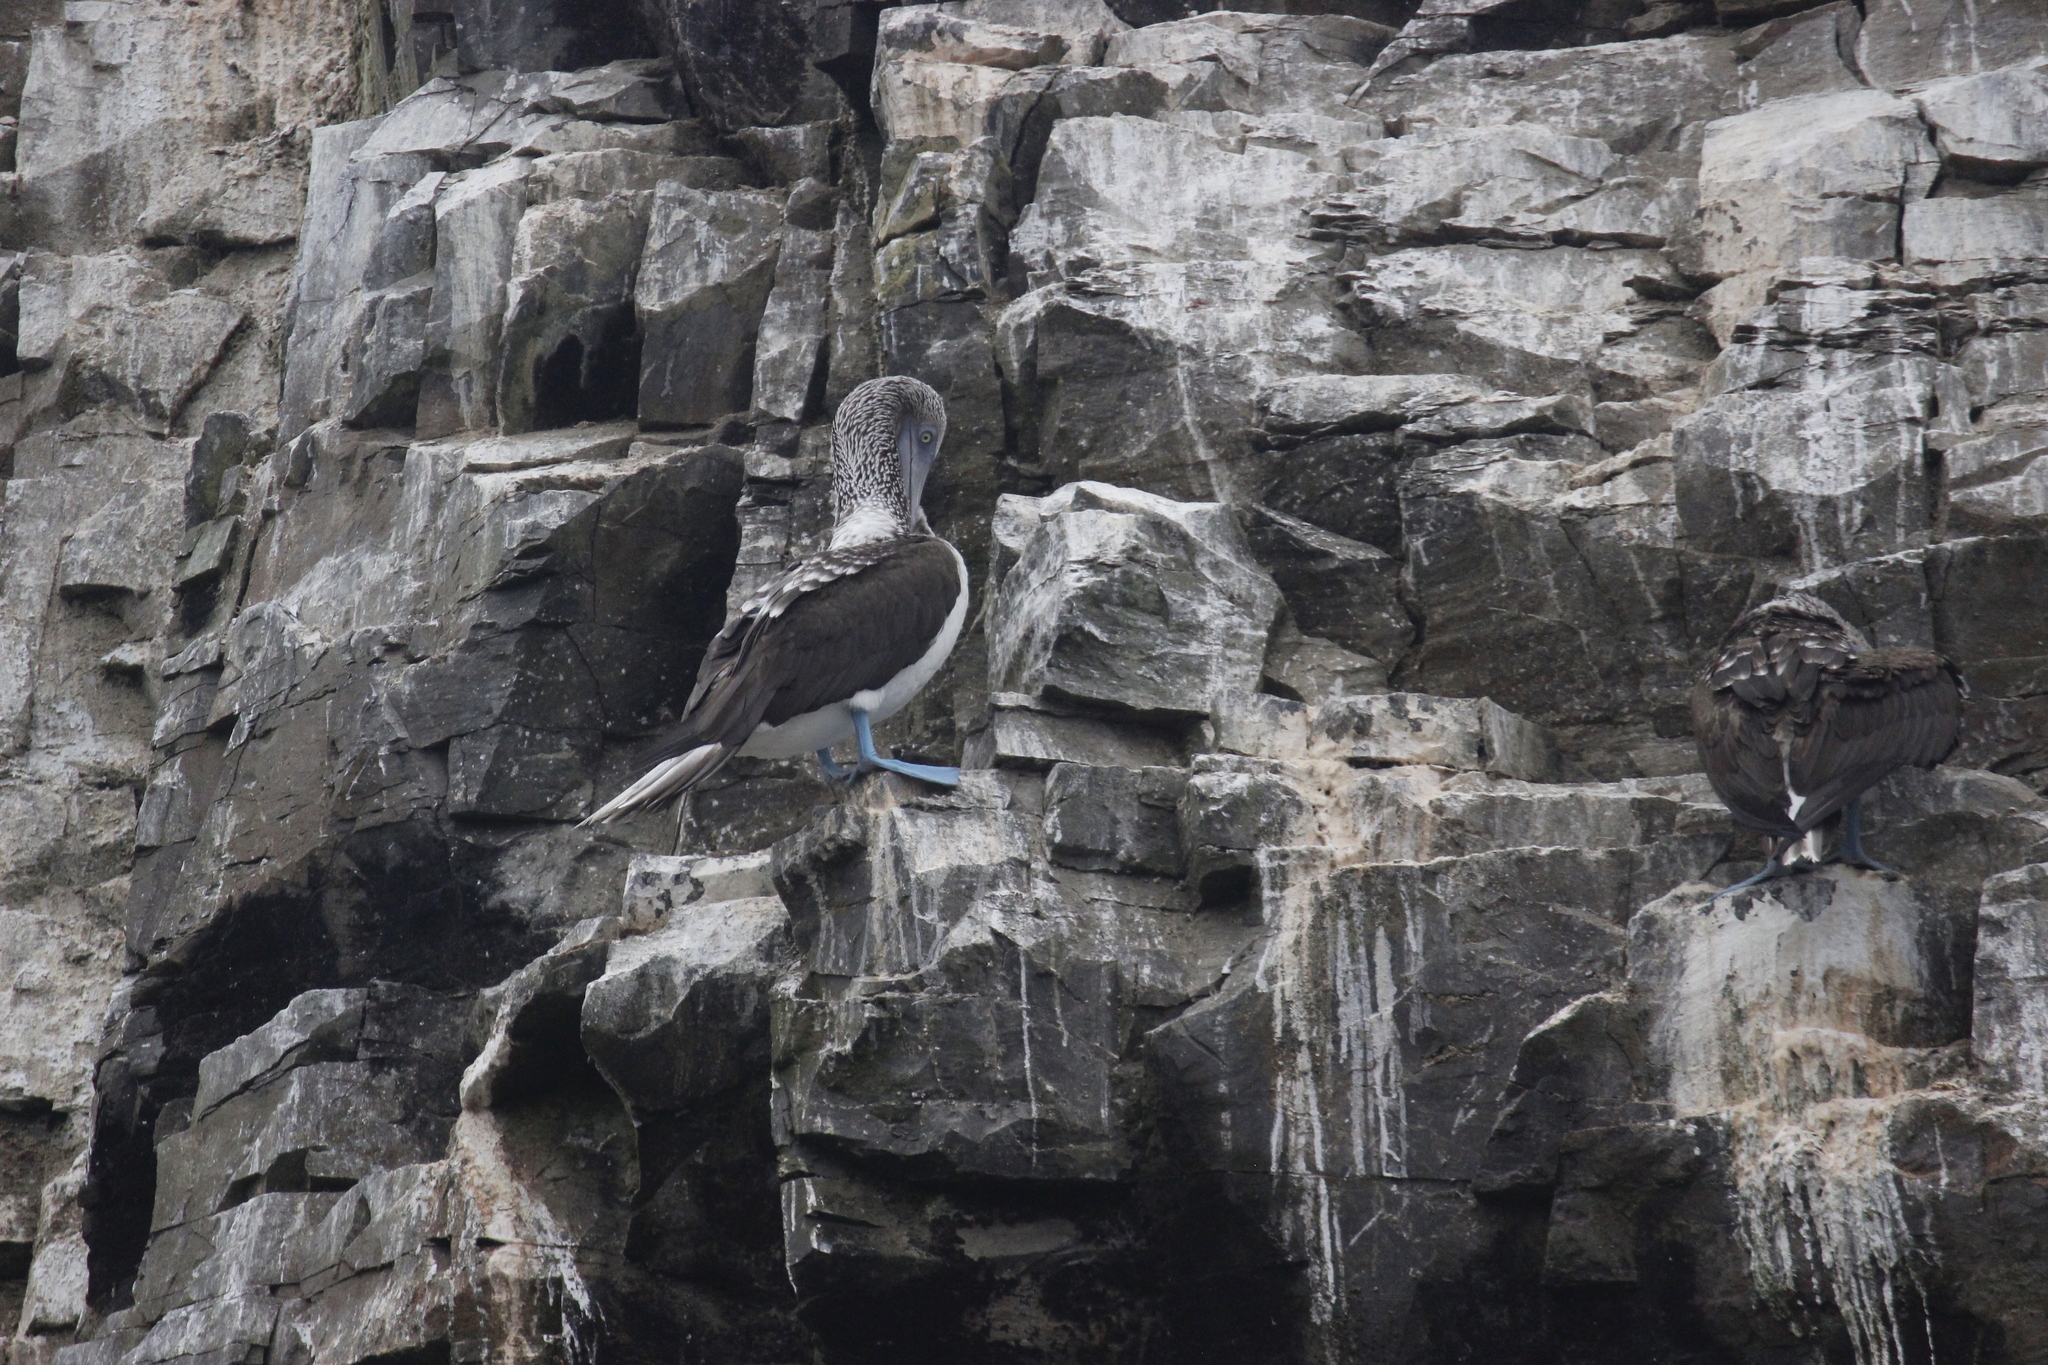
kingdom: Animalia
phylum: Chordata
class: Aves
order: Suliformes
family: Sulidae
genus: Sula
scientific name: Sula nebouxii
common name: Blue-footed booby
